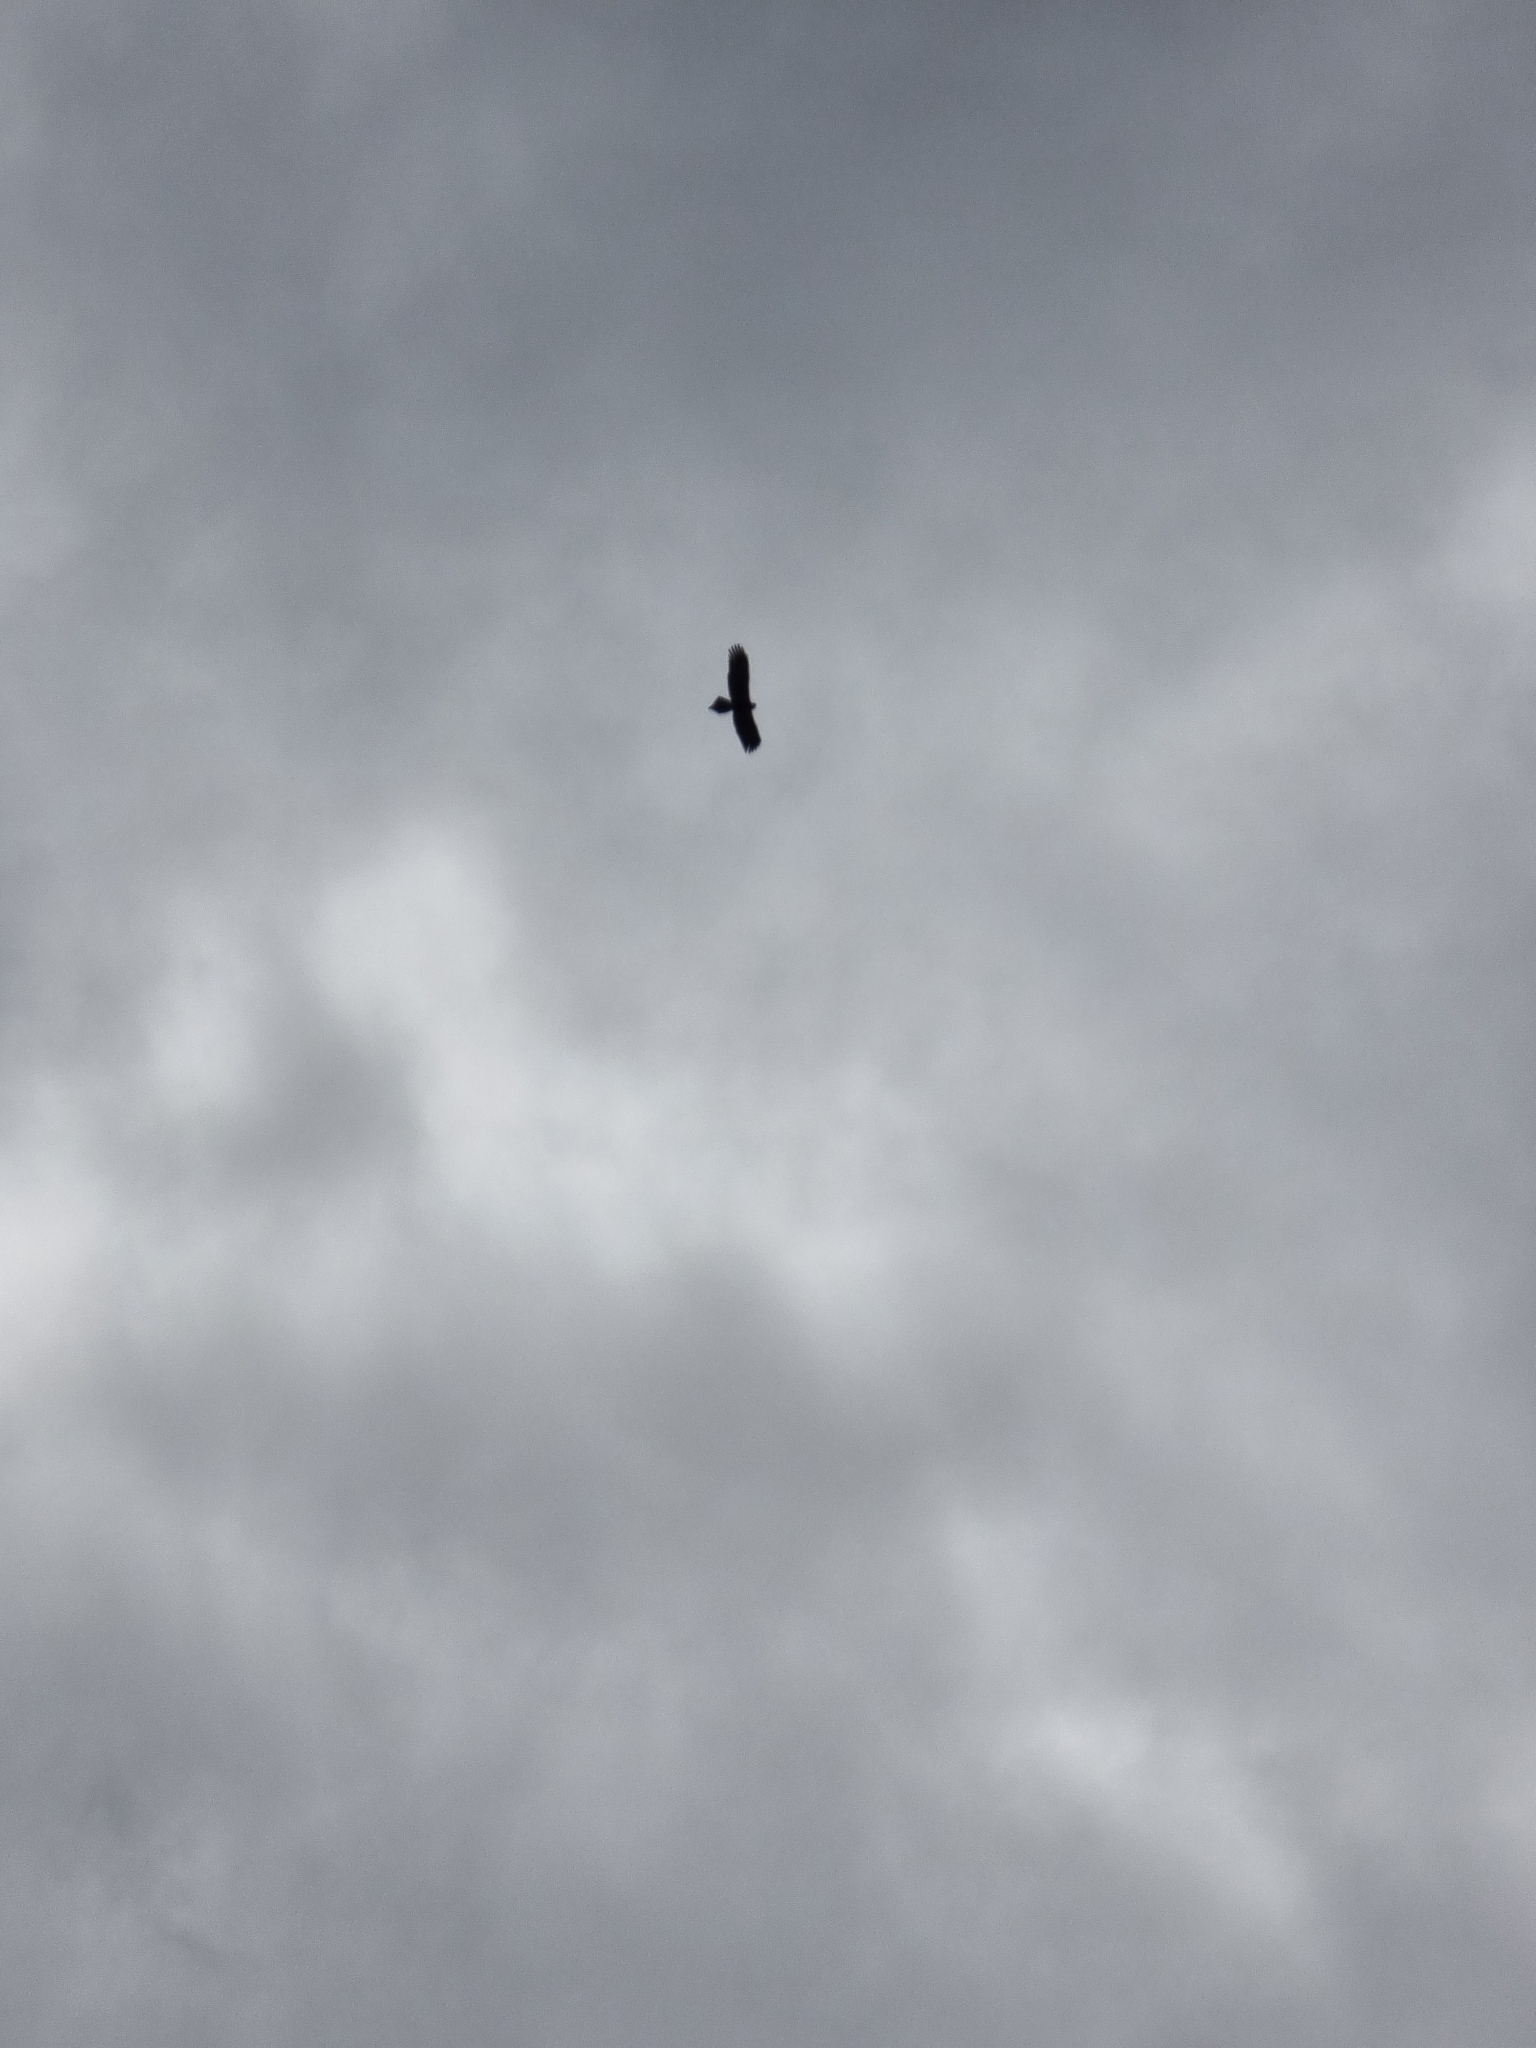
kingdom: Animalia
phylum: Chordata
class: Aves
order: Accipitriformes
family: Accipitridae
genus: Aquila
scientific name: Aquila audax
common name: Wedge-tailed eagle
